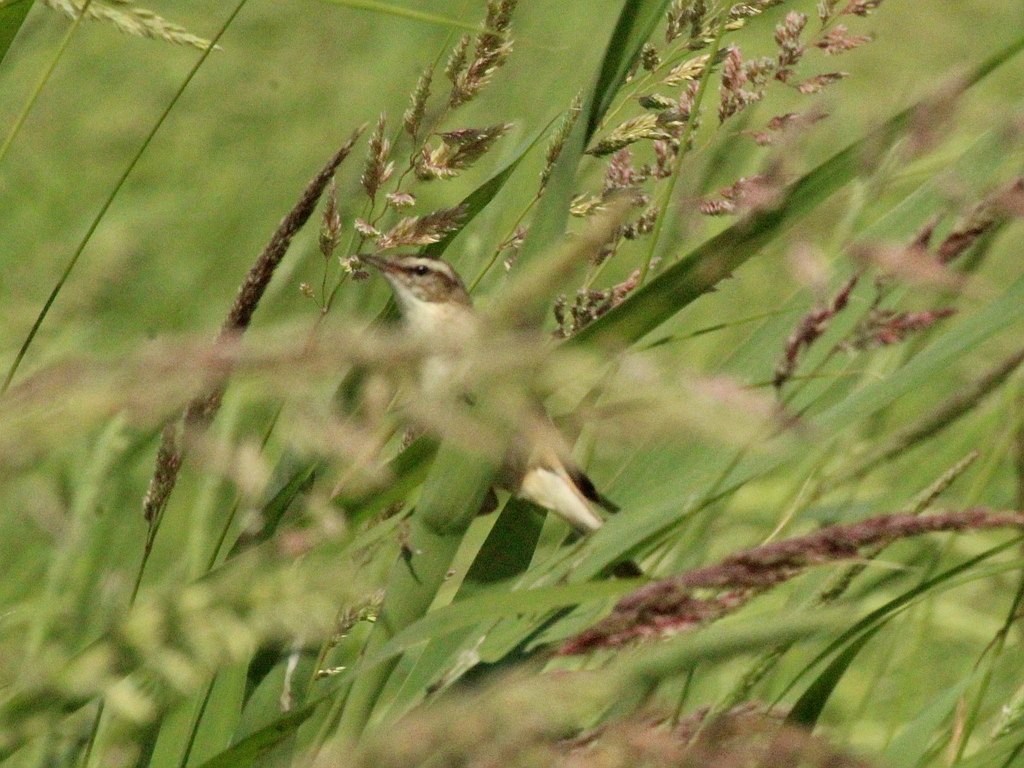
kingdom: Animalia
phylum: Chordata
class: Aves
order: Passeriformes
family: Acrocephalidae
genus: Acrocephalus
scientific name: Acrocephalus schoenobaenus
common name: Sedge warbler
